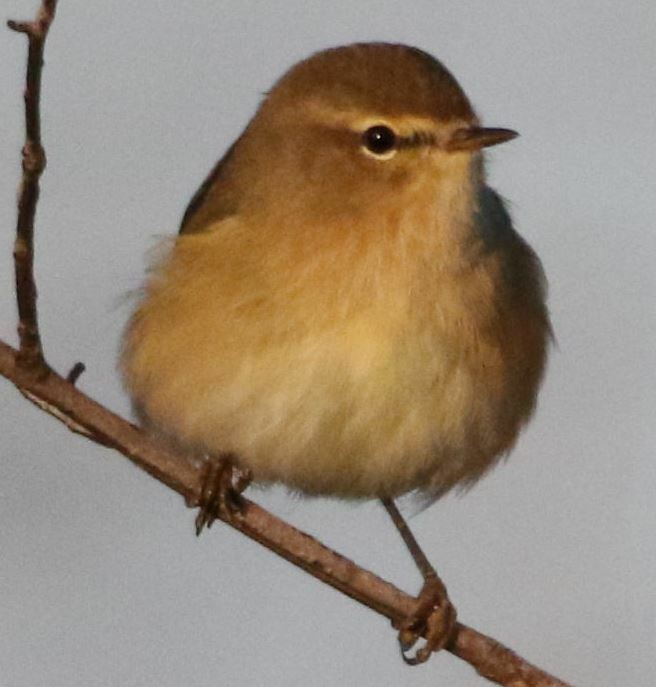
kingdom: Animalia
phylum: Chordata
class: Aves
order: Passeriformes
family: Phylloscopidae
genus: Phylloscopus
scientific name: Phylloscopus collybita
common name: Common chiffchaff
